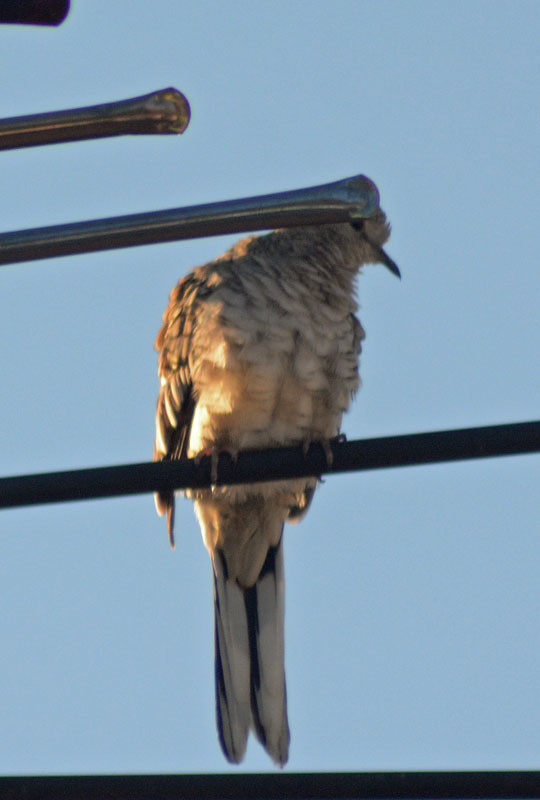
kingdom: Animalia
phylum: Chordata
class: Aves
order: Columbiformes
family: Columbidae
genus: Columbina
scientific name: Columbina inca
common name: Inca dove
